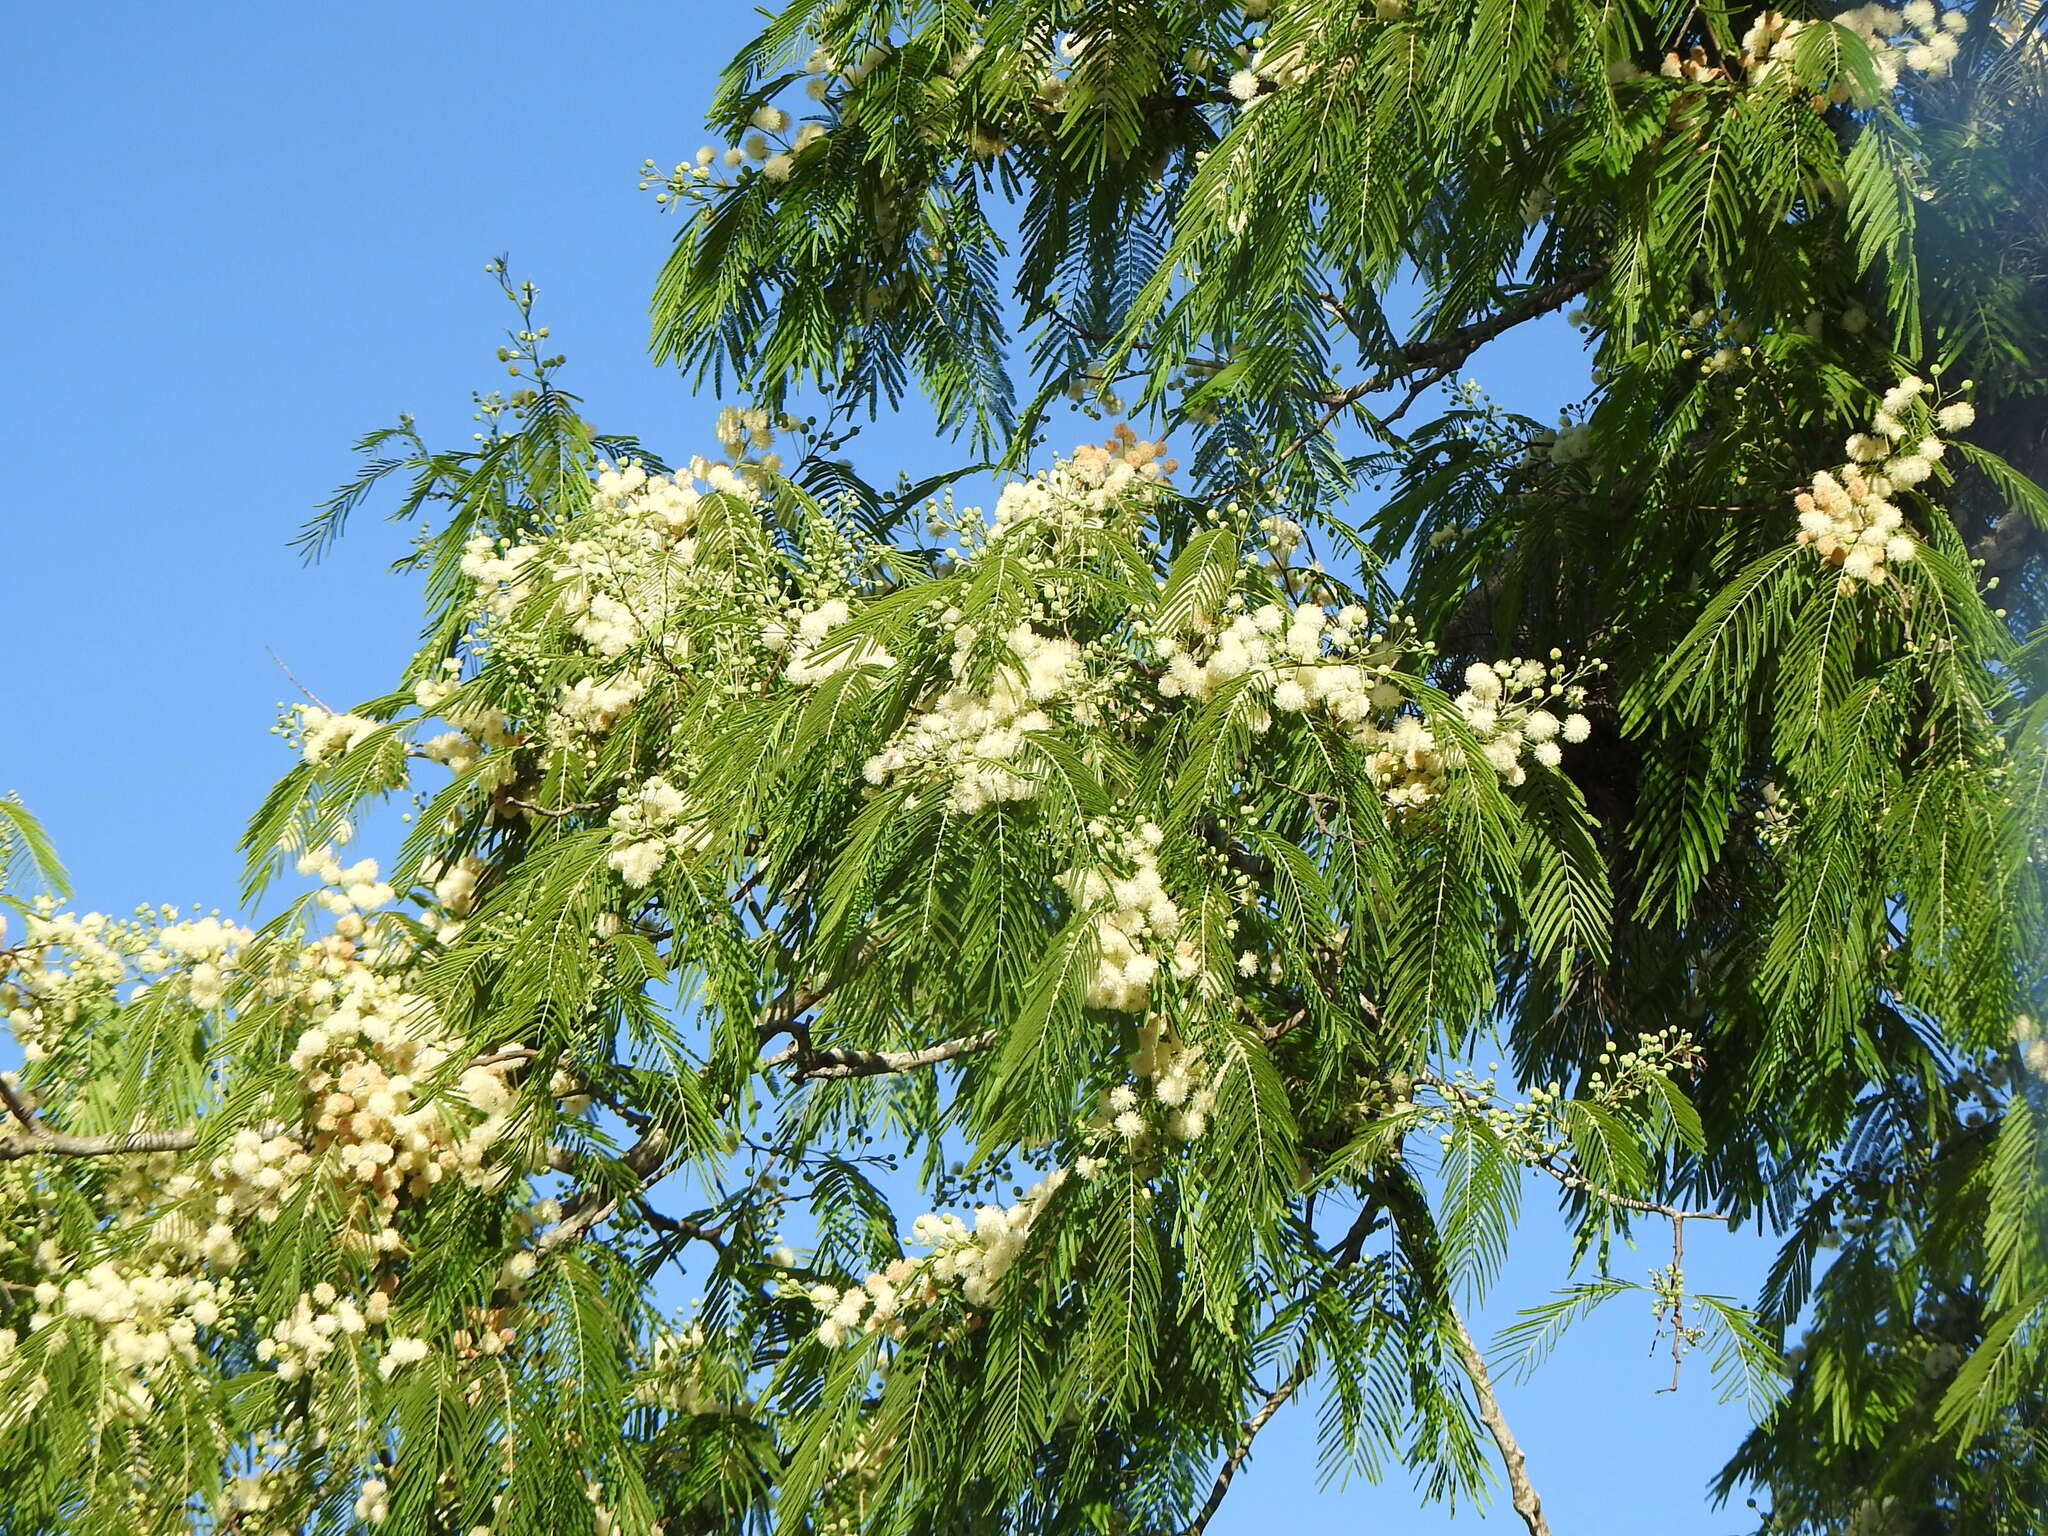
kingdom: Plantae
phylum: Tracheophyta
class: Magnoliopsida
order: Fabales
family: Fabaceae
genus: Anadenanthera
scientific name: Anadenanthera colubrina
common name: Curupay
